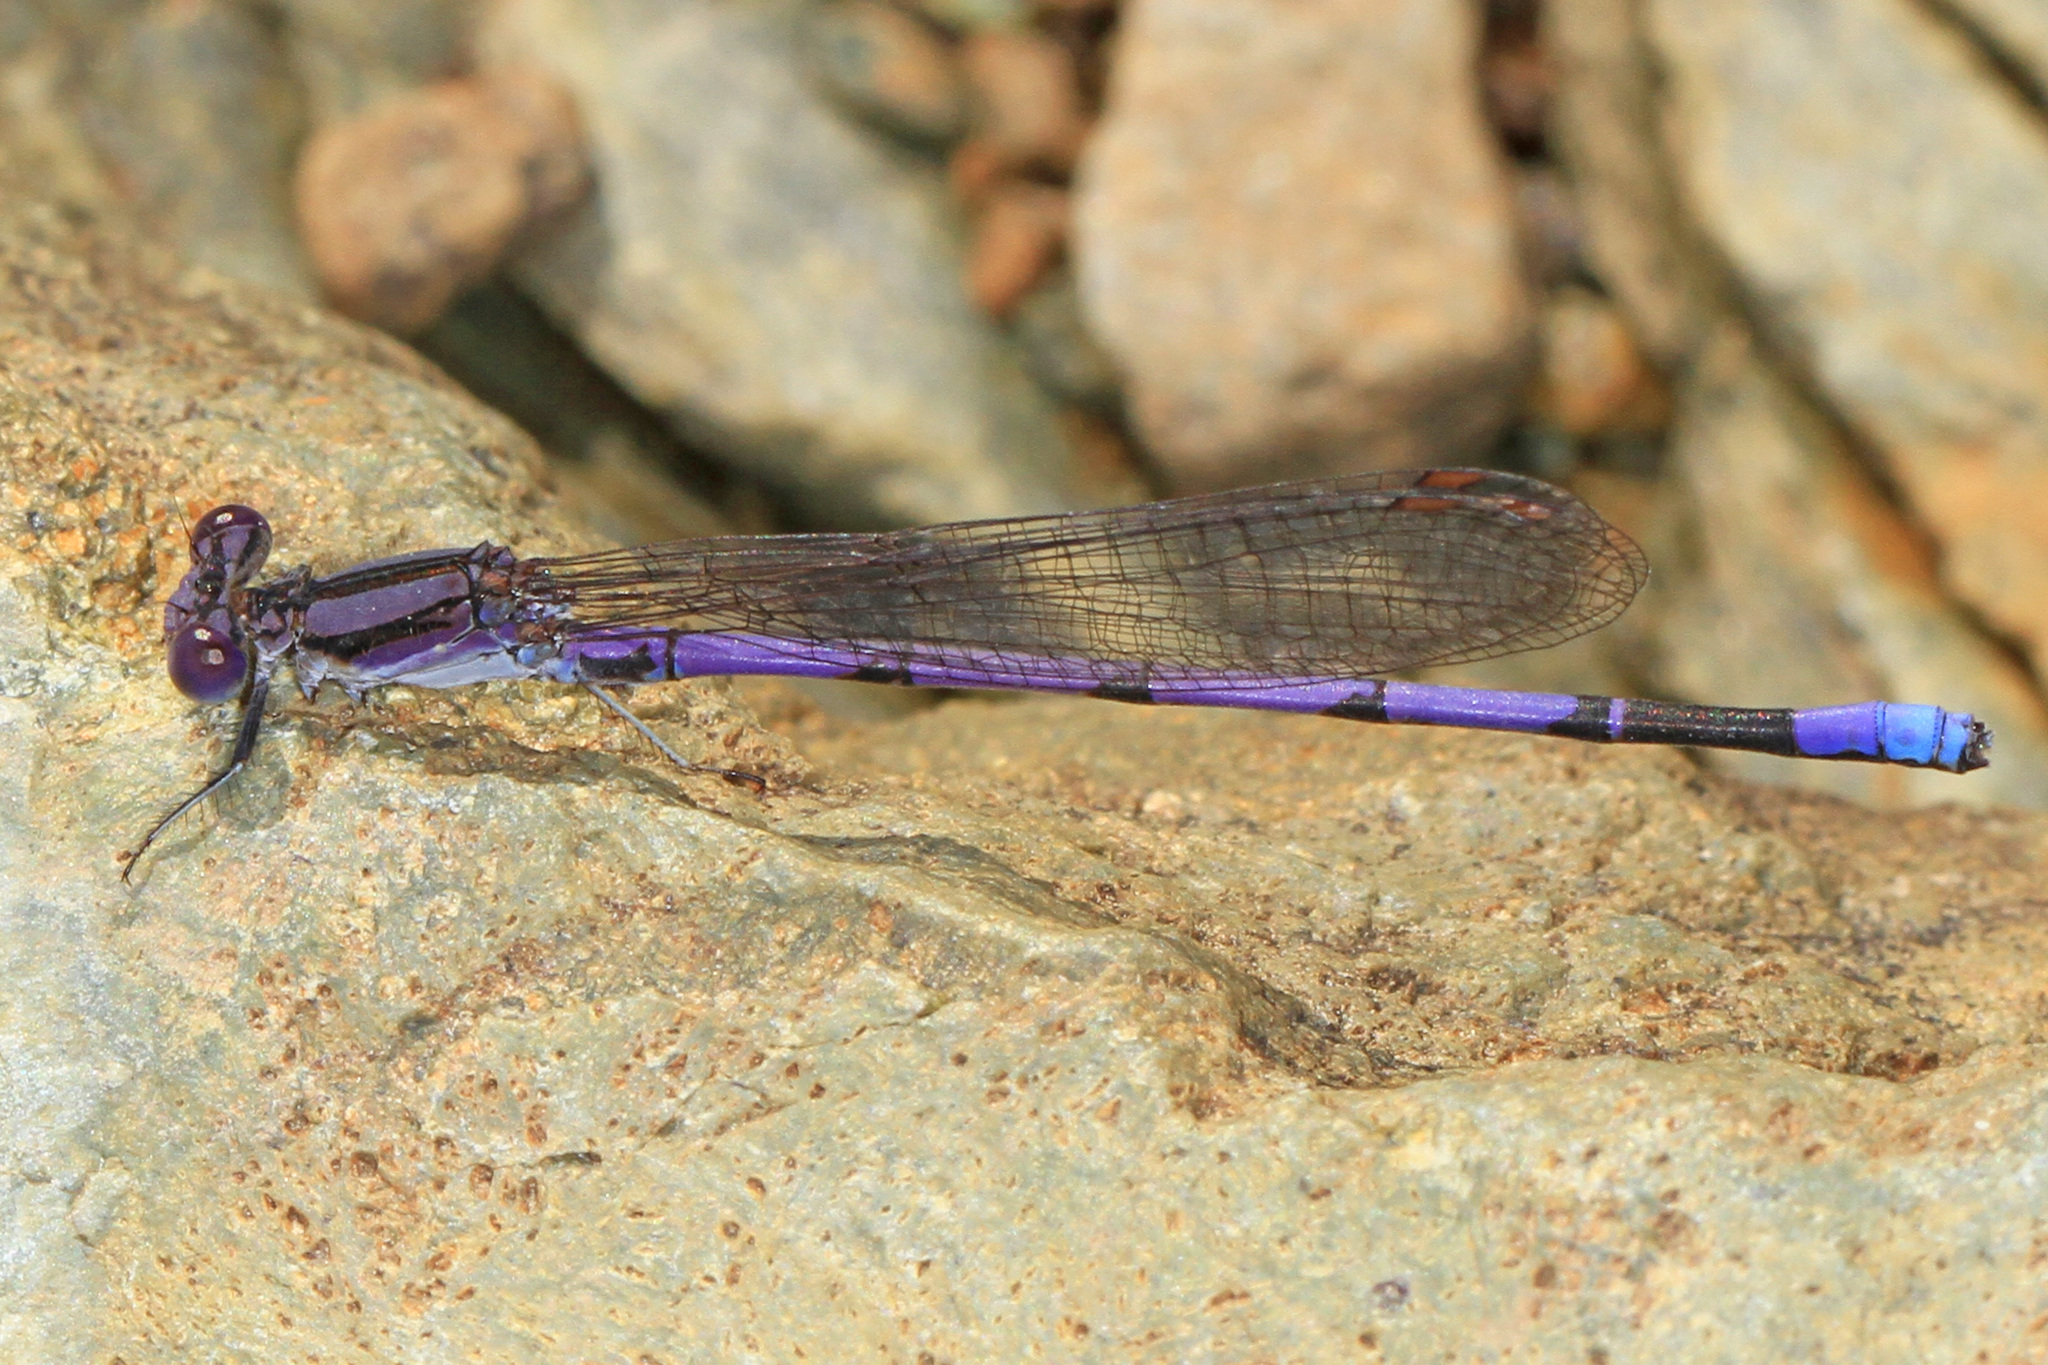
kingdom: Animalia
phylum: Arthropoda
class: Insecta
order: Odonata
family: Coenagrionidae
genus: Argia
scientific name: Argia fumipennis
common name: Variable dancer
